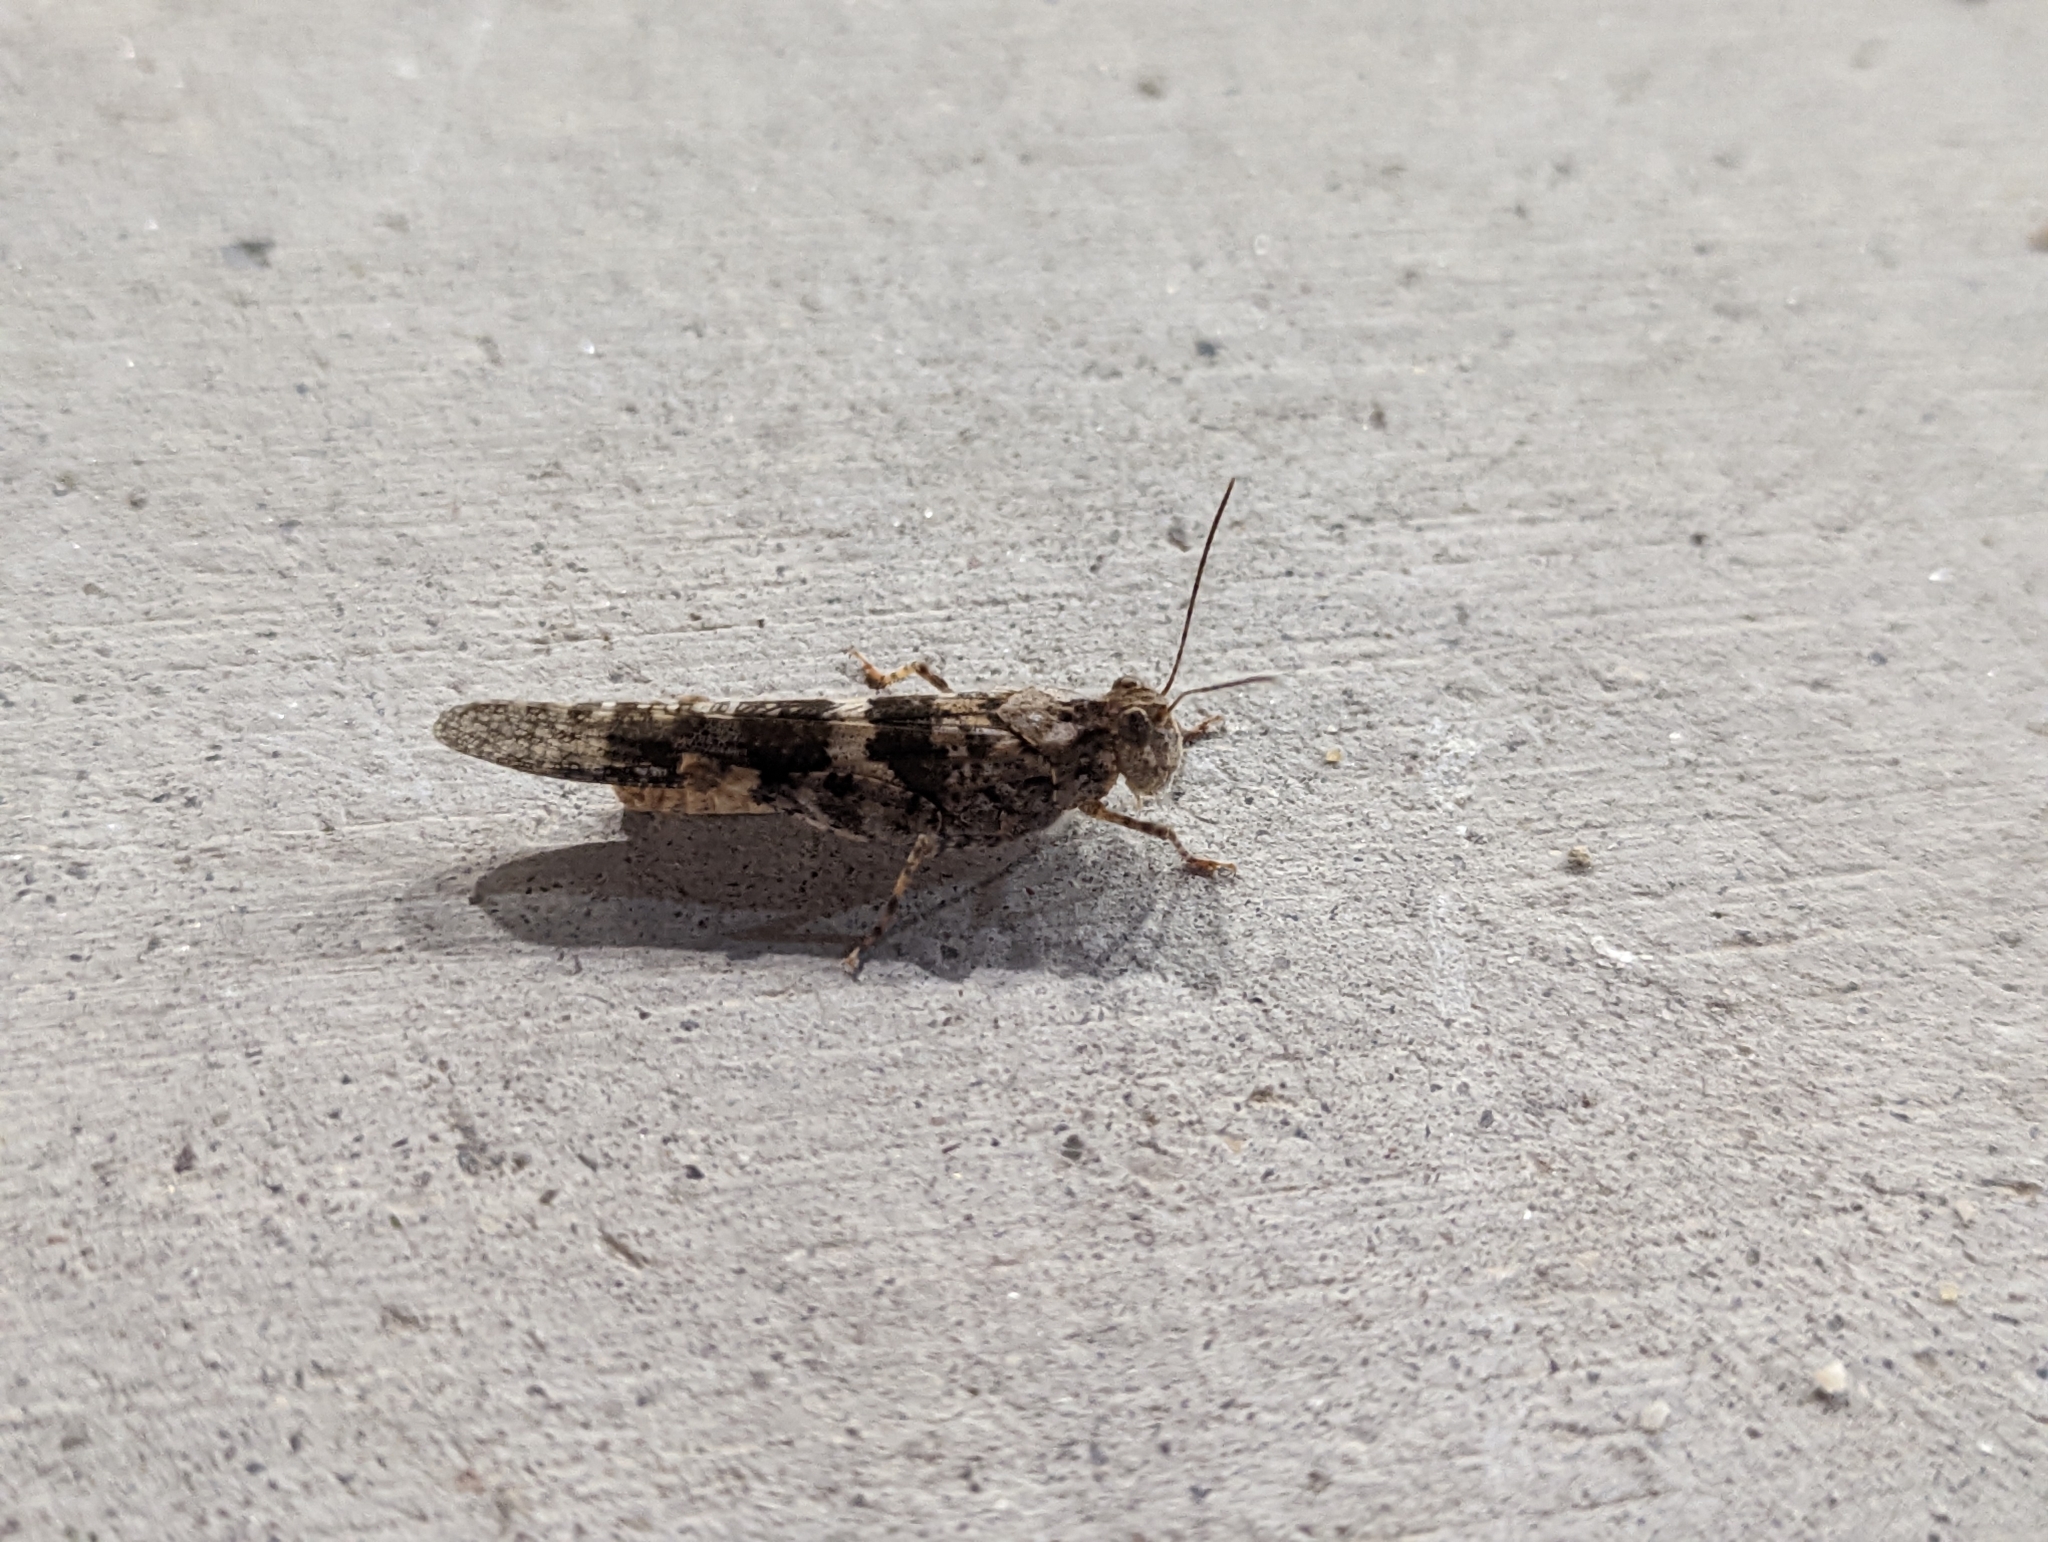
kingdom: Animalia
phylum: Arthropoda
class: Insecta
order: Orthoptera
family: Acrididae
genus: Trimerotropis
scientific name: Trimerotropis pallidipennis
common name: Pallid-winged grasshopper
